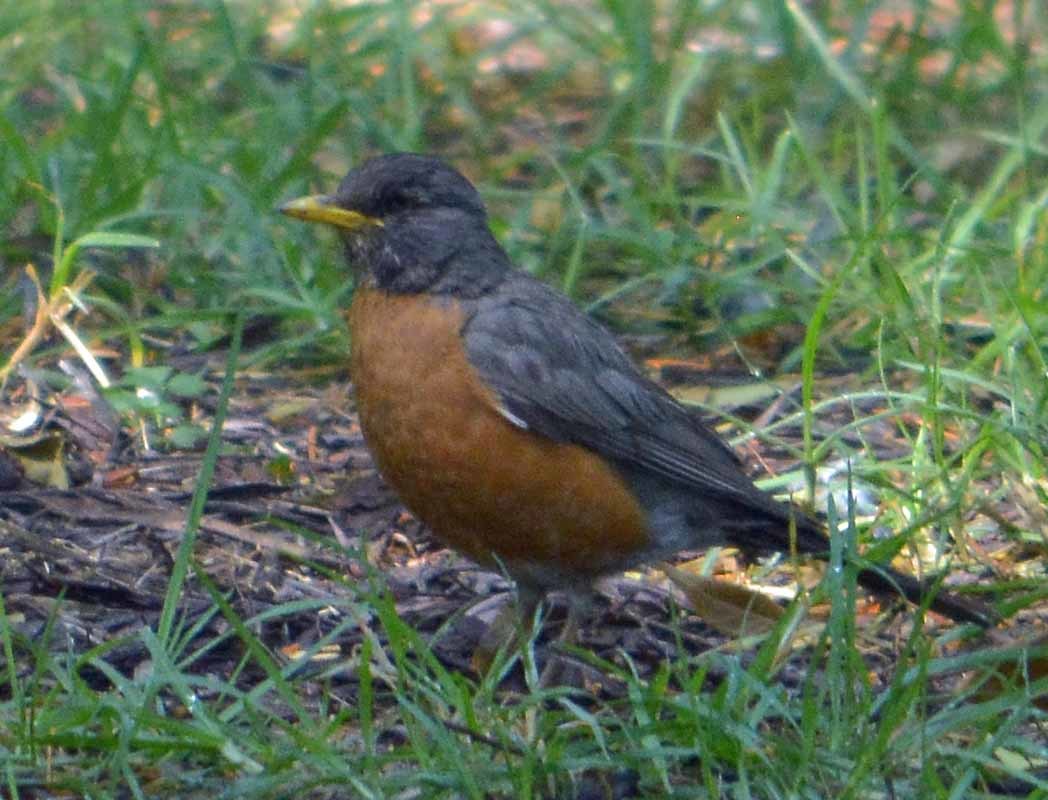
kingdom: Animalia
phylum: Chordata
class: Aves
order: Passeriformes
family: Turdidae
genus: Turdus
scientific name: Turdus migratorius
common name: American robin
